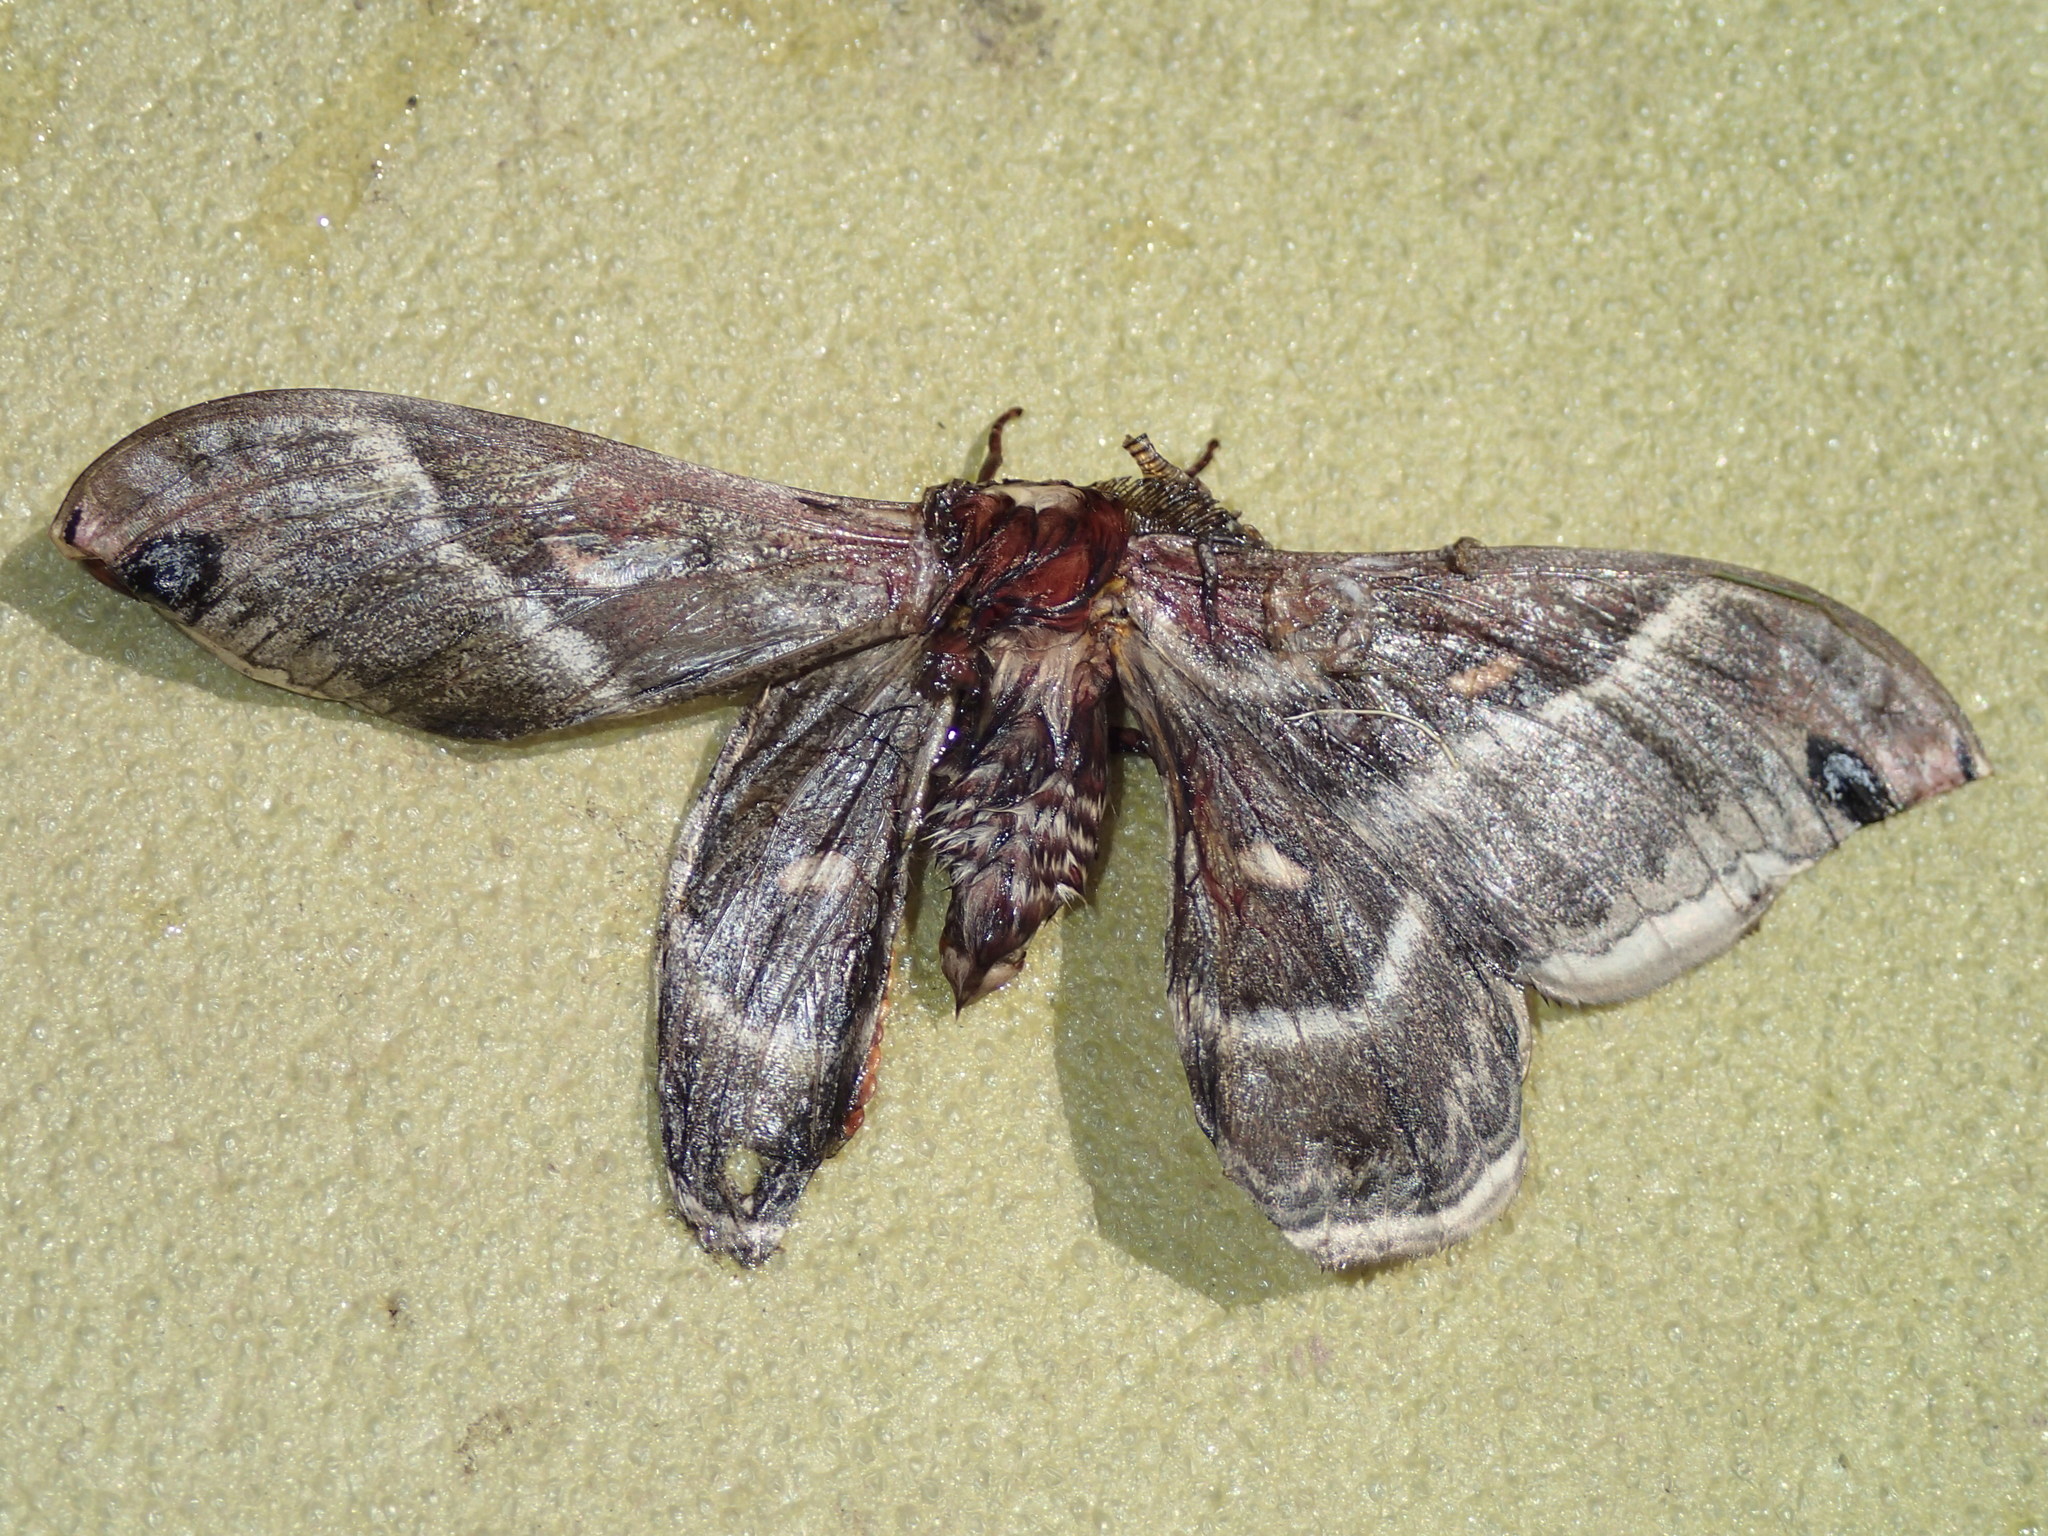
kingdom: Animalia
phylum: Arthropoda
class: Insecta
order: Lepidoptera
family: Saturniidae
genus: Hyalophora
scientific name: Hyalophora columbia
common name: Columbia silkmoth
